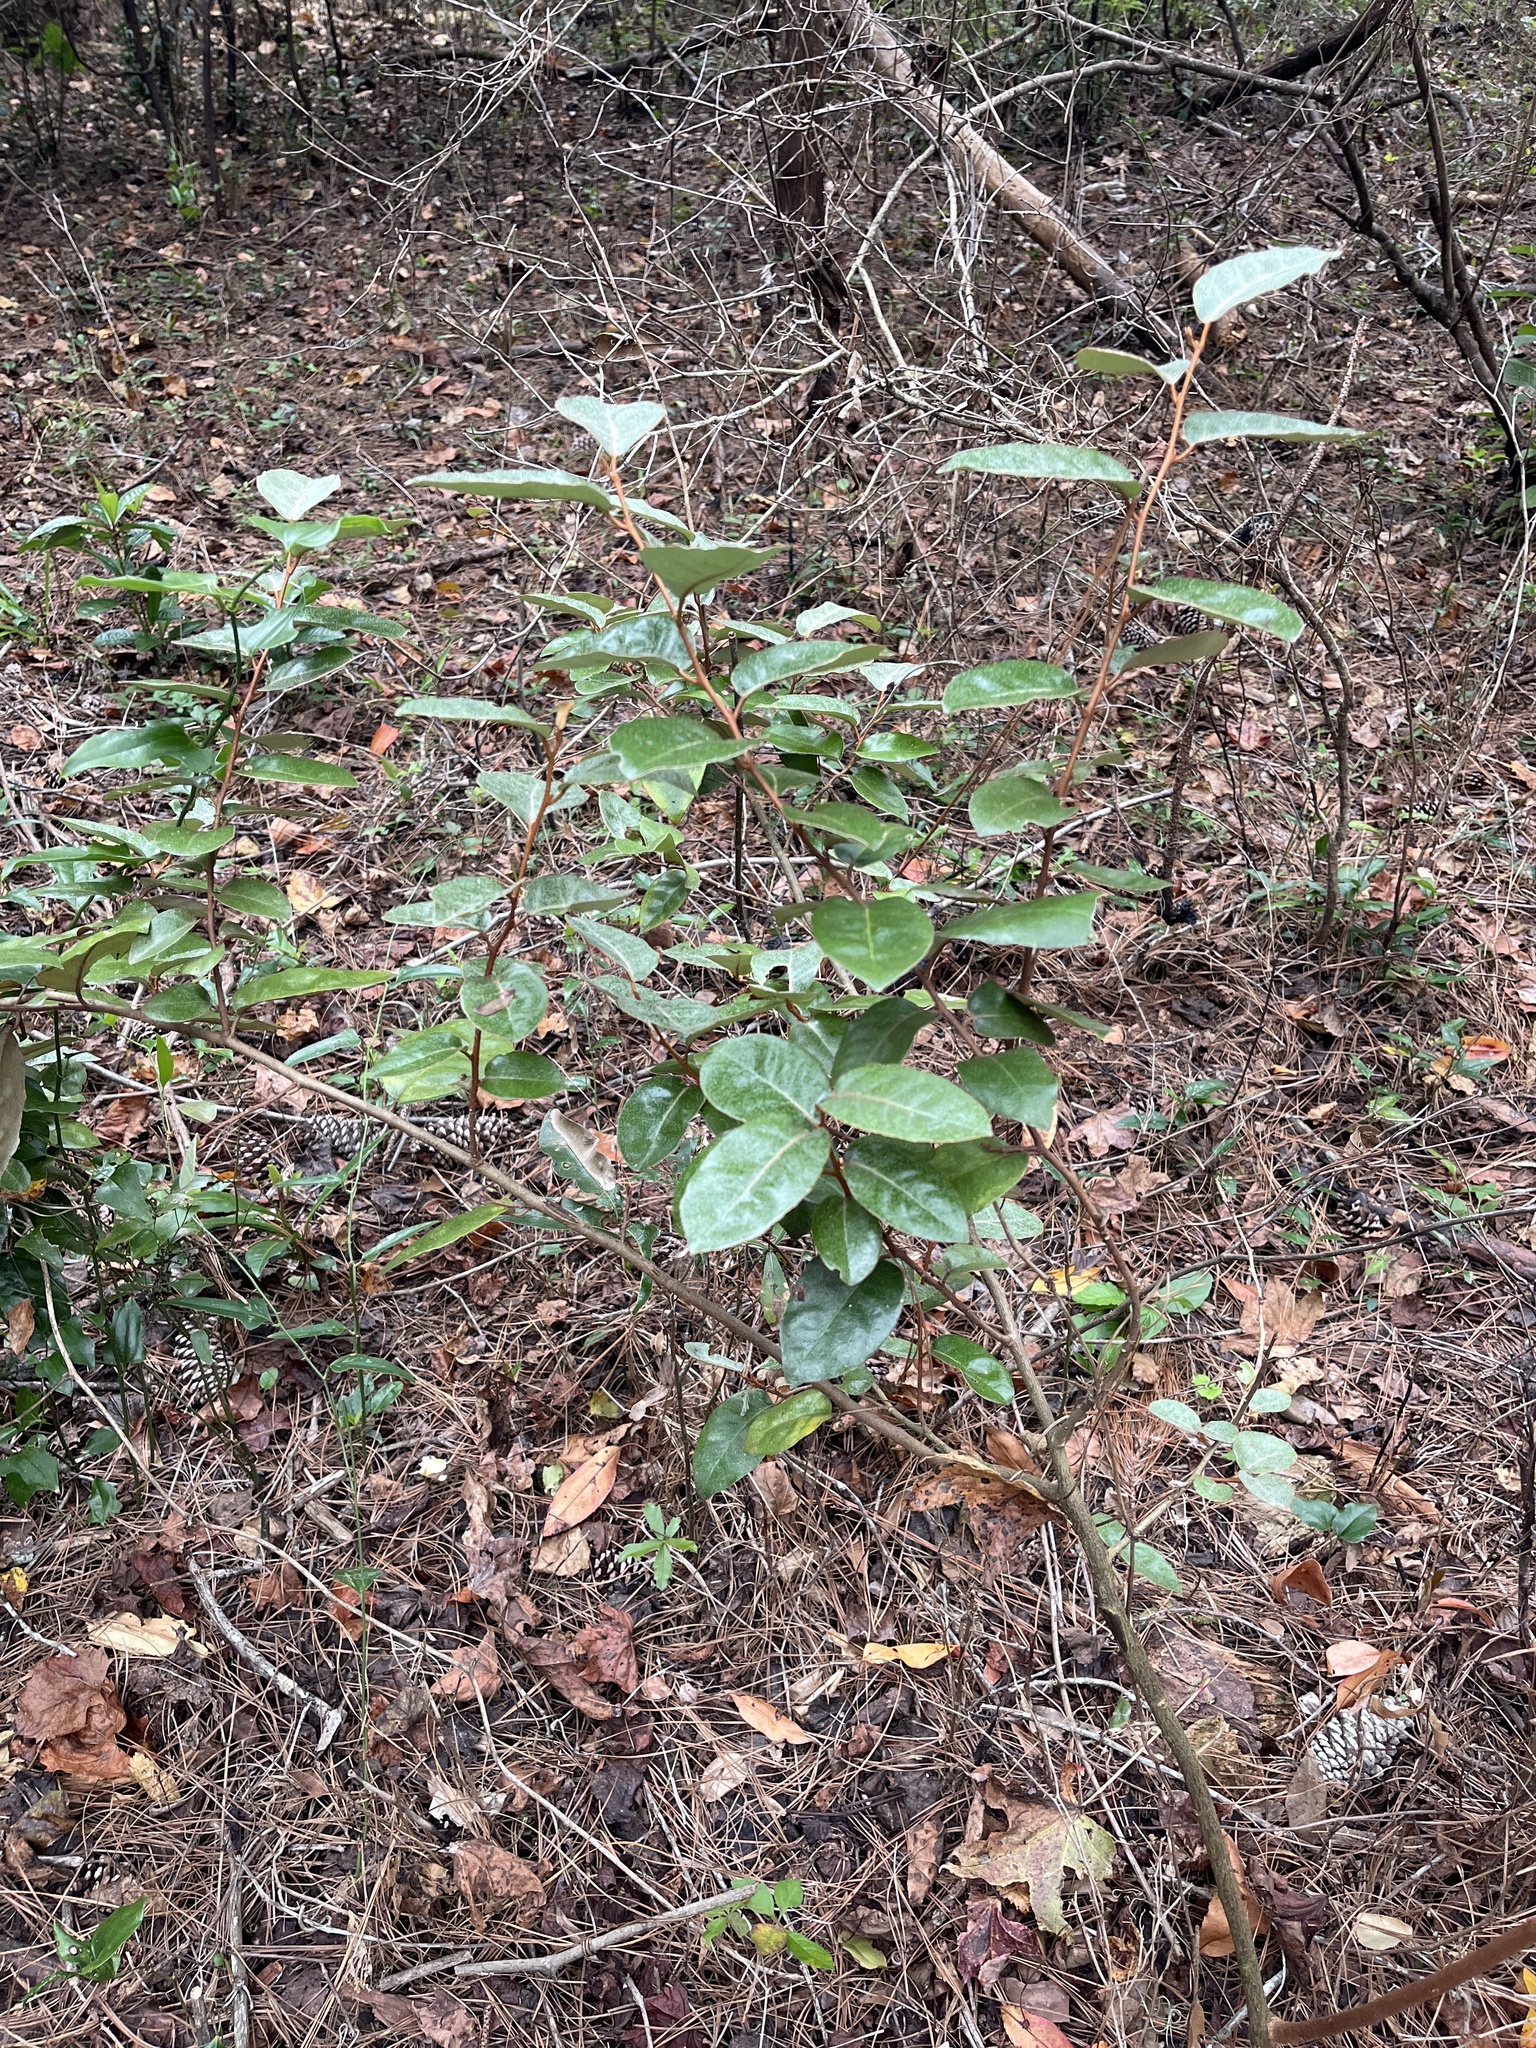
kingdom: Plantae
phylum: Tracheophyta
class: Magnoliopsida
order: Rosales
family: Elaeagnaceae
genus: Elaeagnus
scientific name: Elaeagnus pungens
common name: Spiny oleaster
